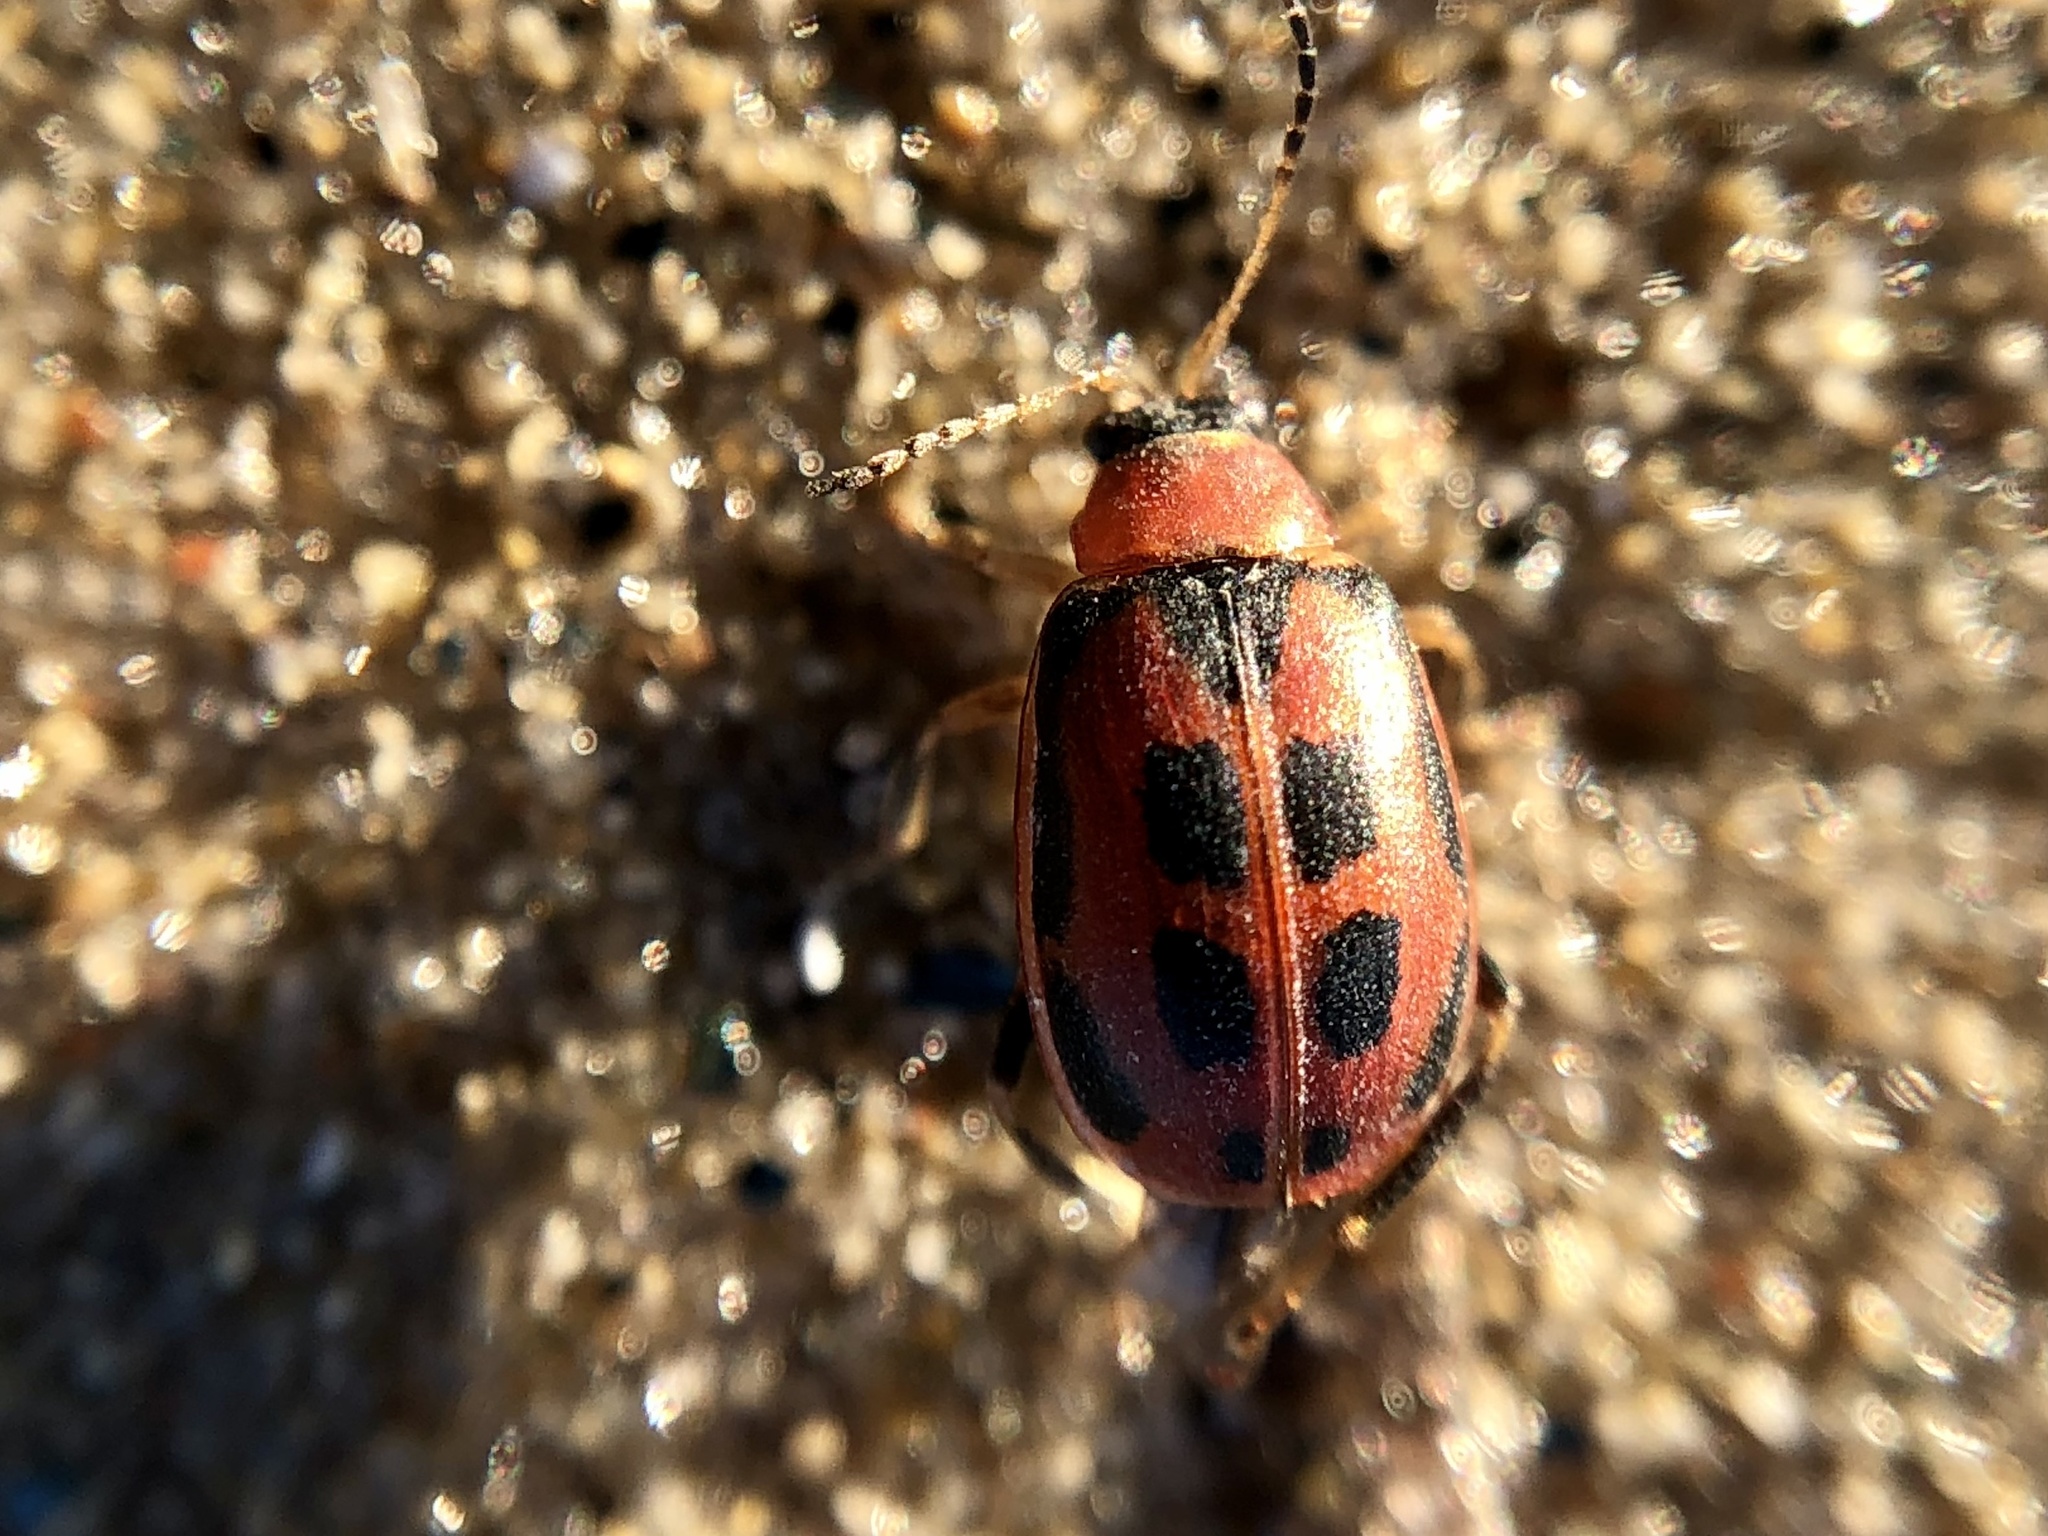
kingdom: Animalia
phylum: Arthropoda
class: Insecta
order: Coleoptera
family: Chrysomelidae
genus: Cerotoma
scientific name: Cerotoma trifurcata
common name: Bean leaf beetle
